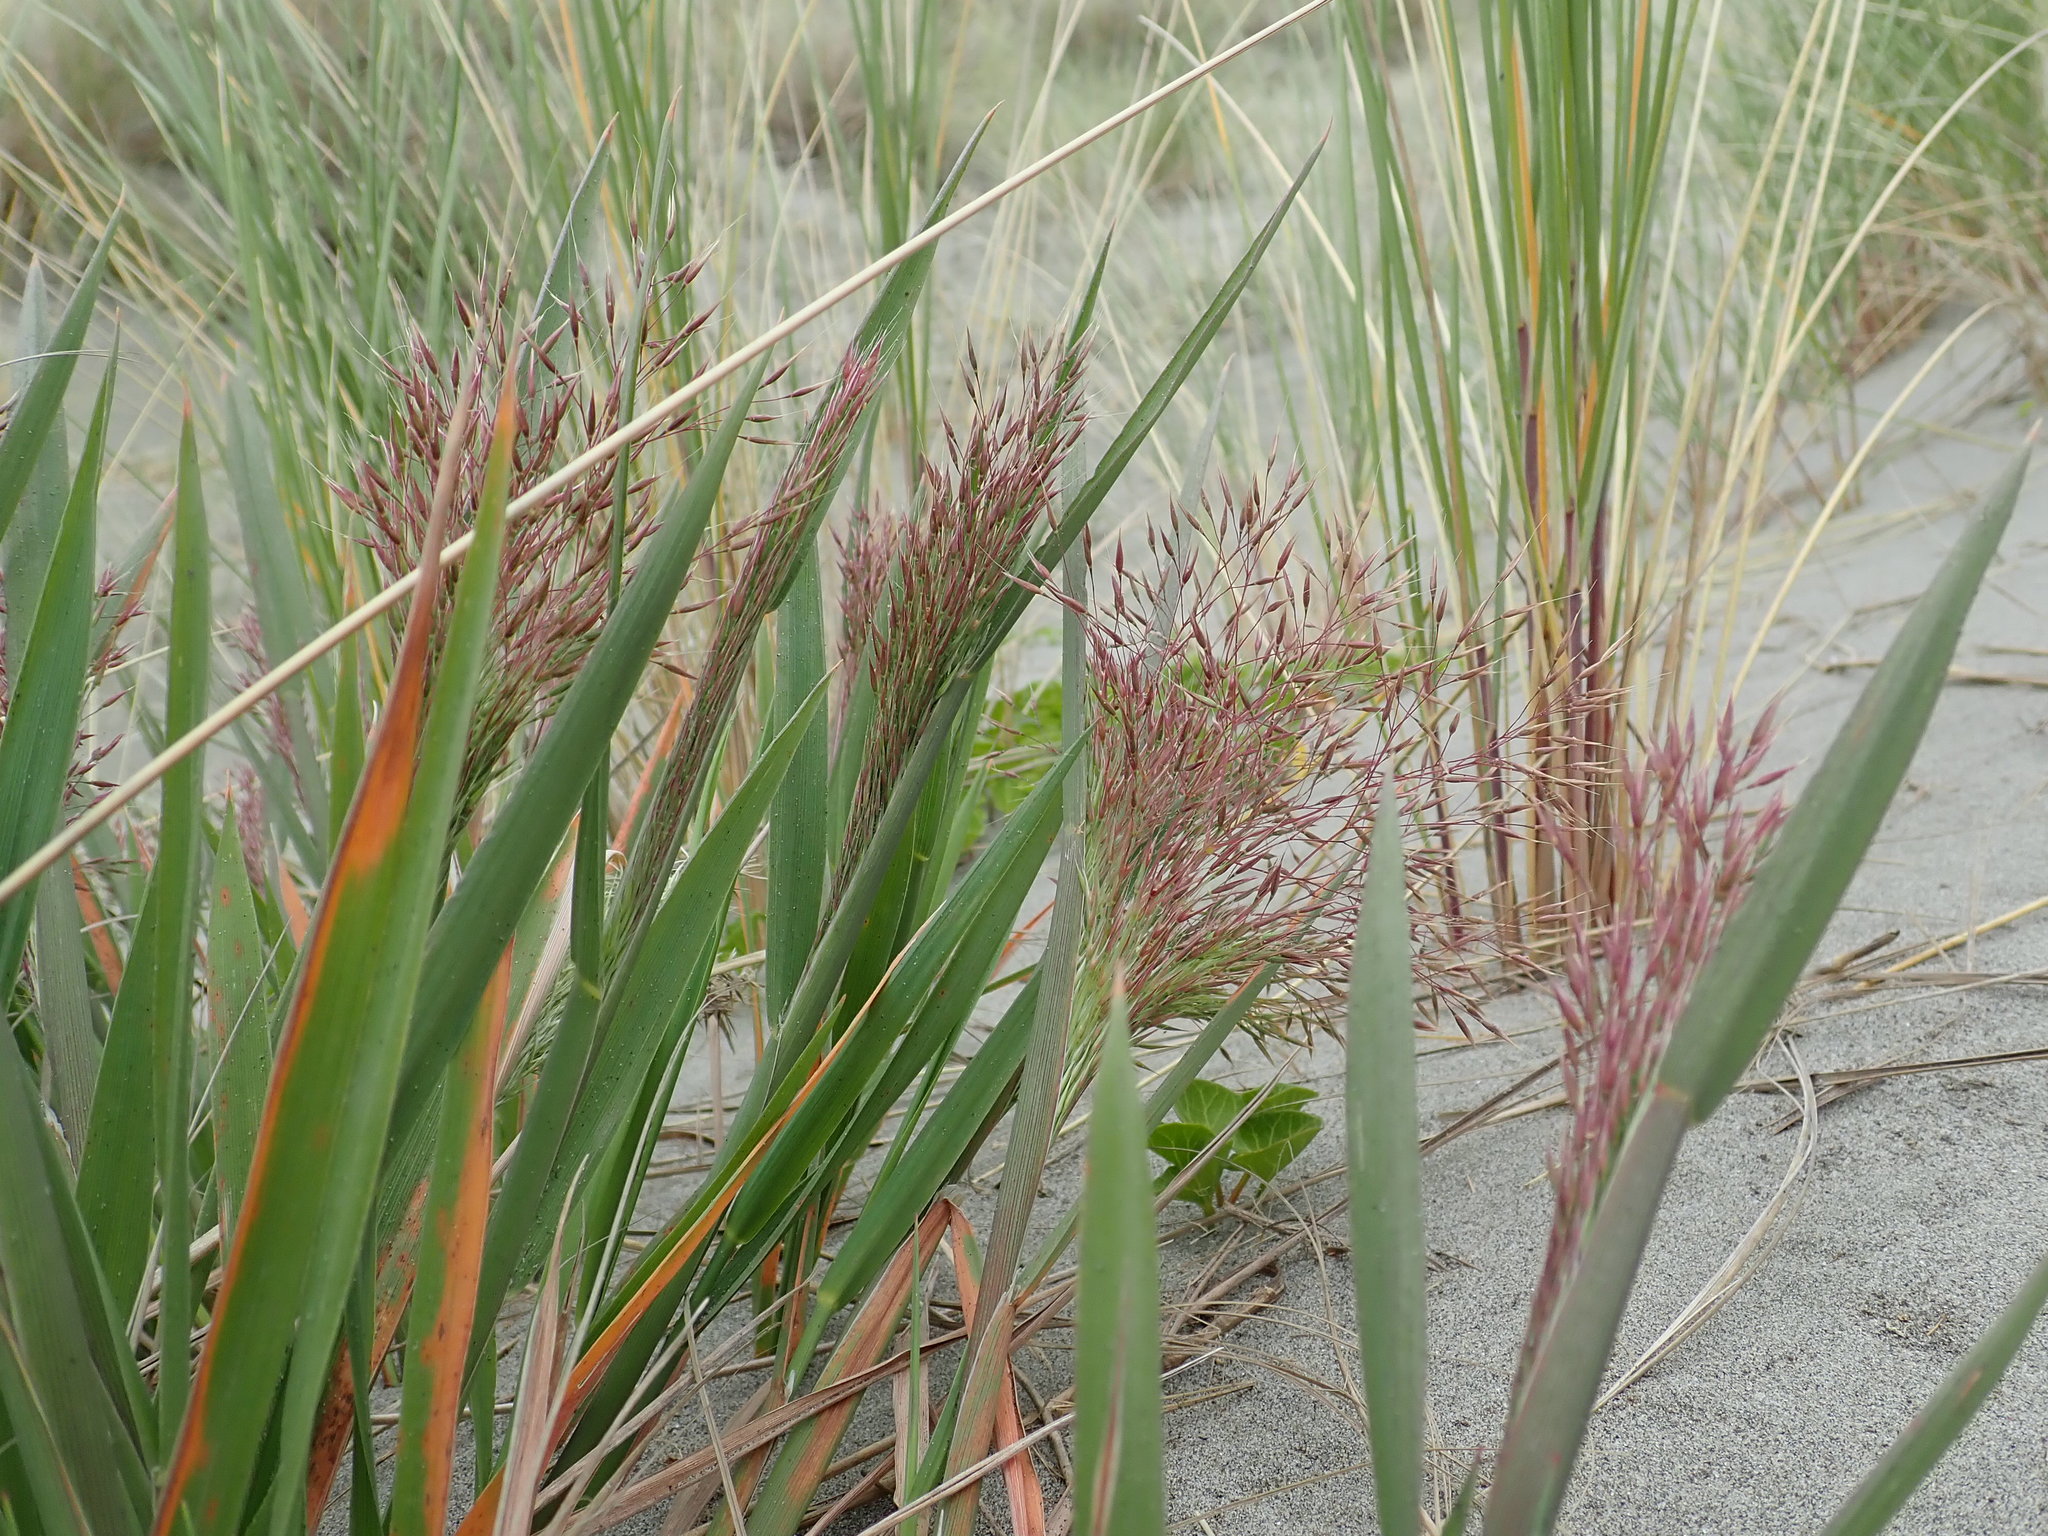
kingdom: Plantae
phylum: Tracheophyta
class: Liliopsida
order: Poales
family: Poaceae
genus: Lachnagrostis
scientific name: Lachnagrostis billardierei
